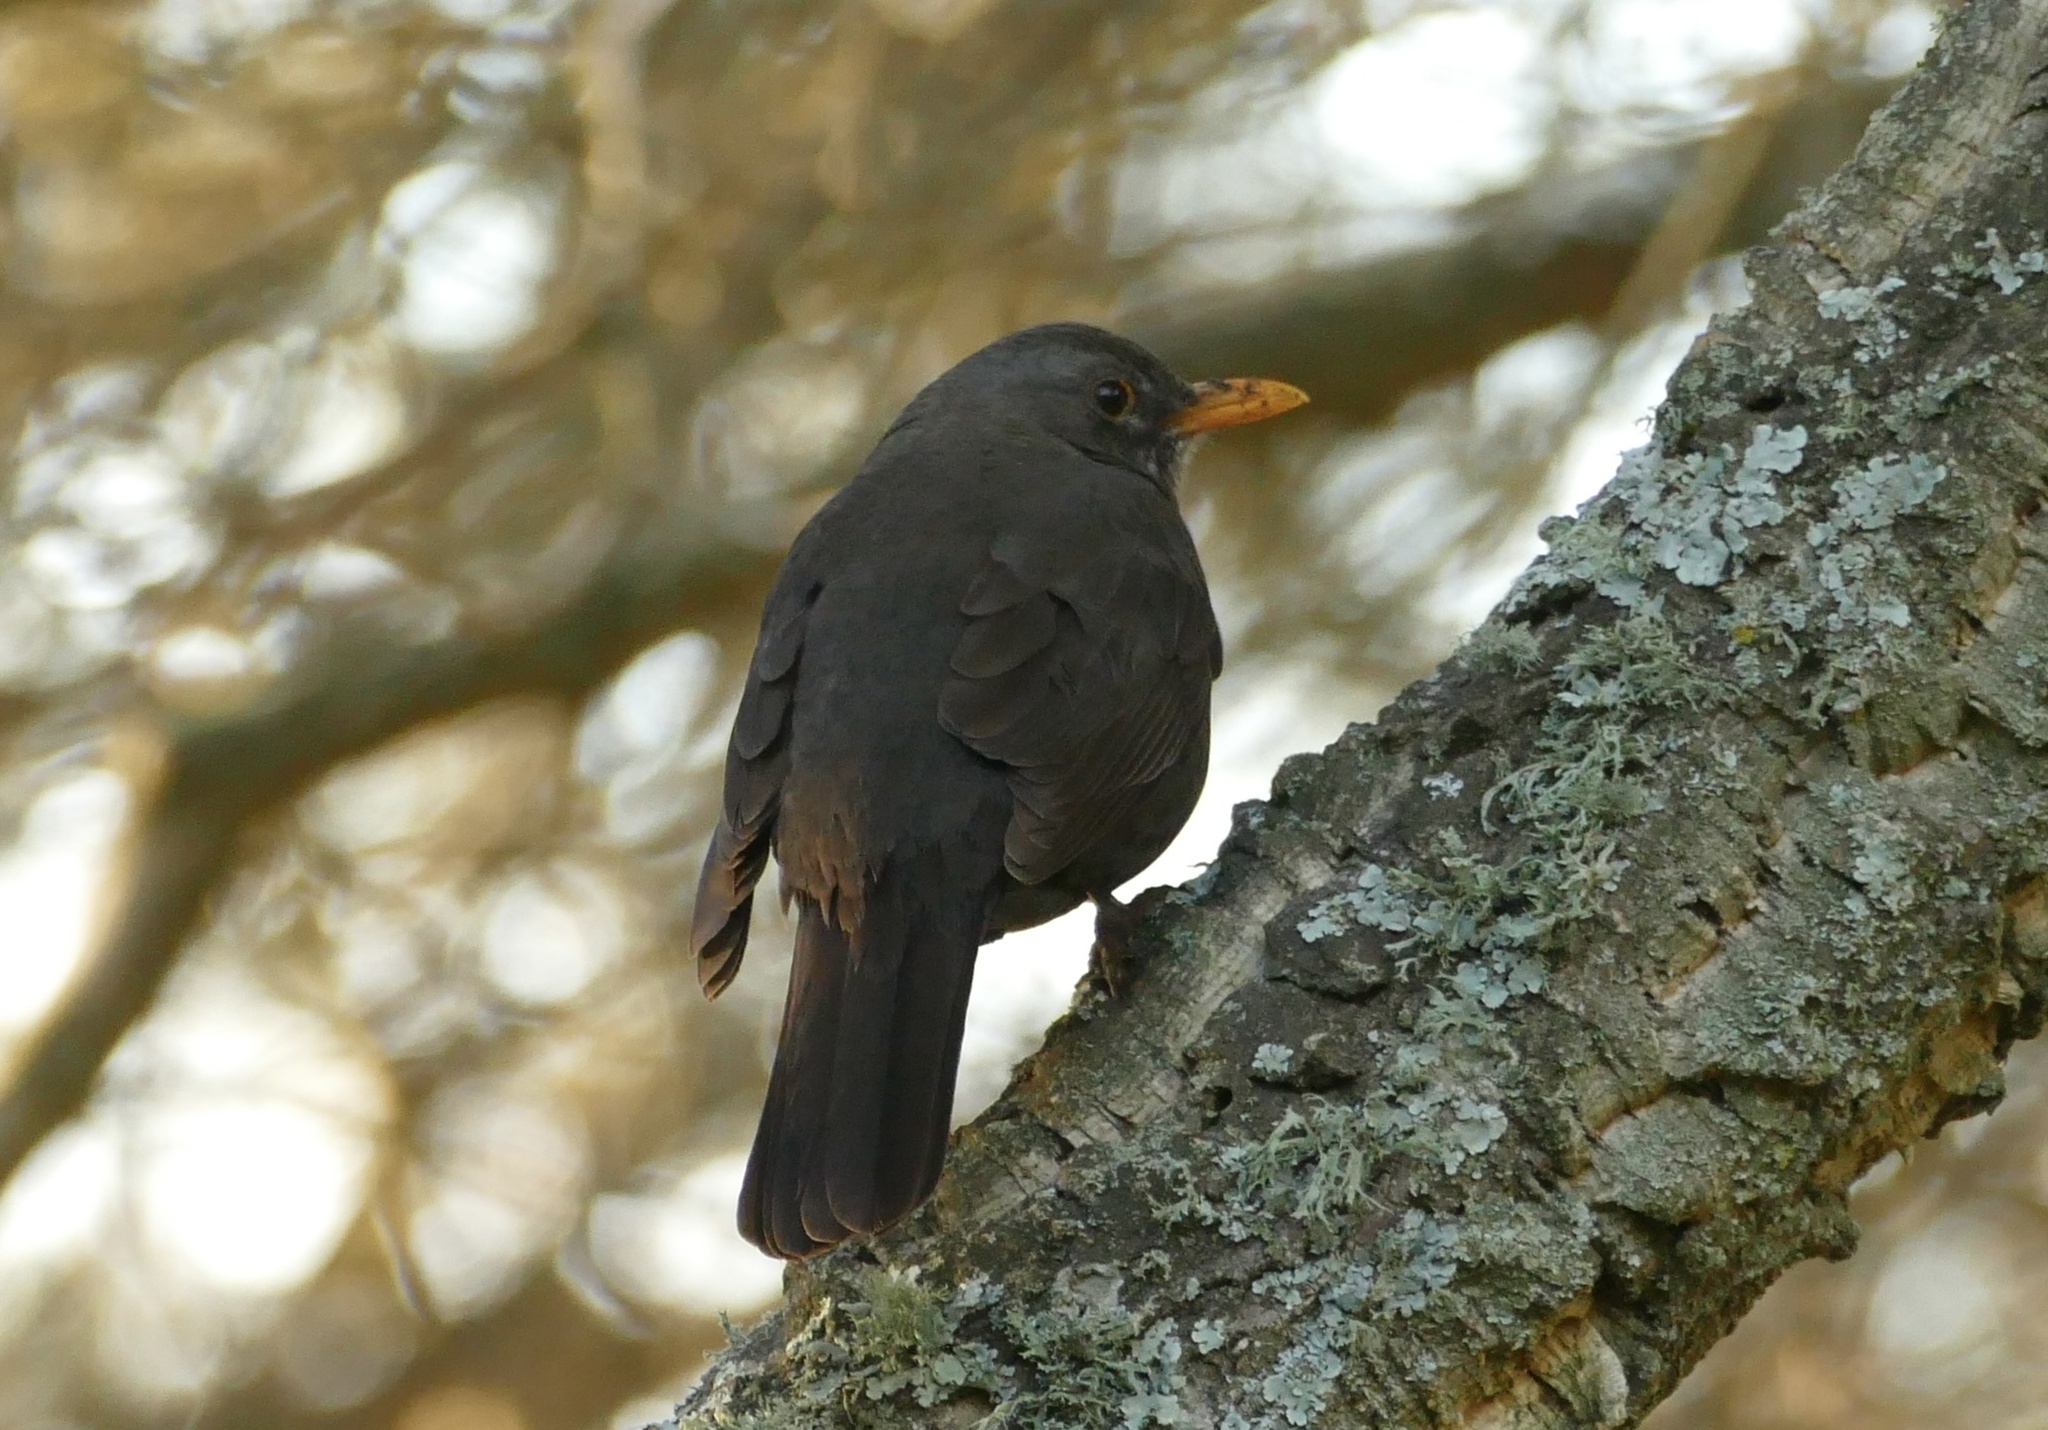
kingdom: Animalia
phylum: Chordata
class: Aves
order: Passeriformes
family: Turdidae
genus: Turdus
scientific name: Turdus merula
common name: Common blackbird
